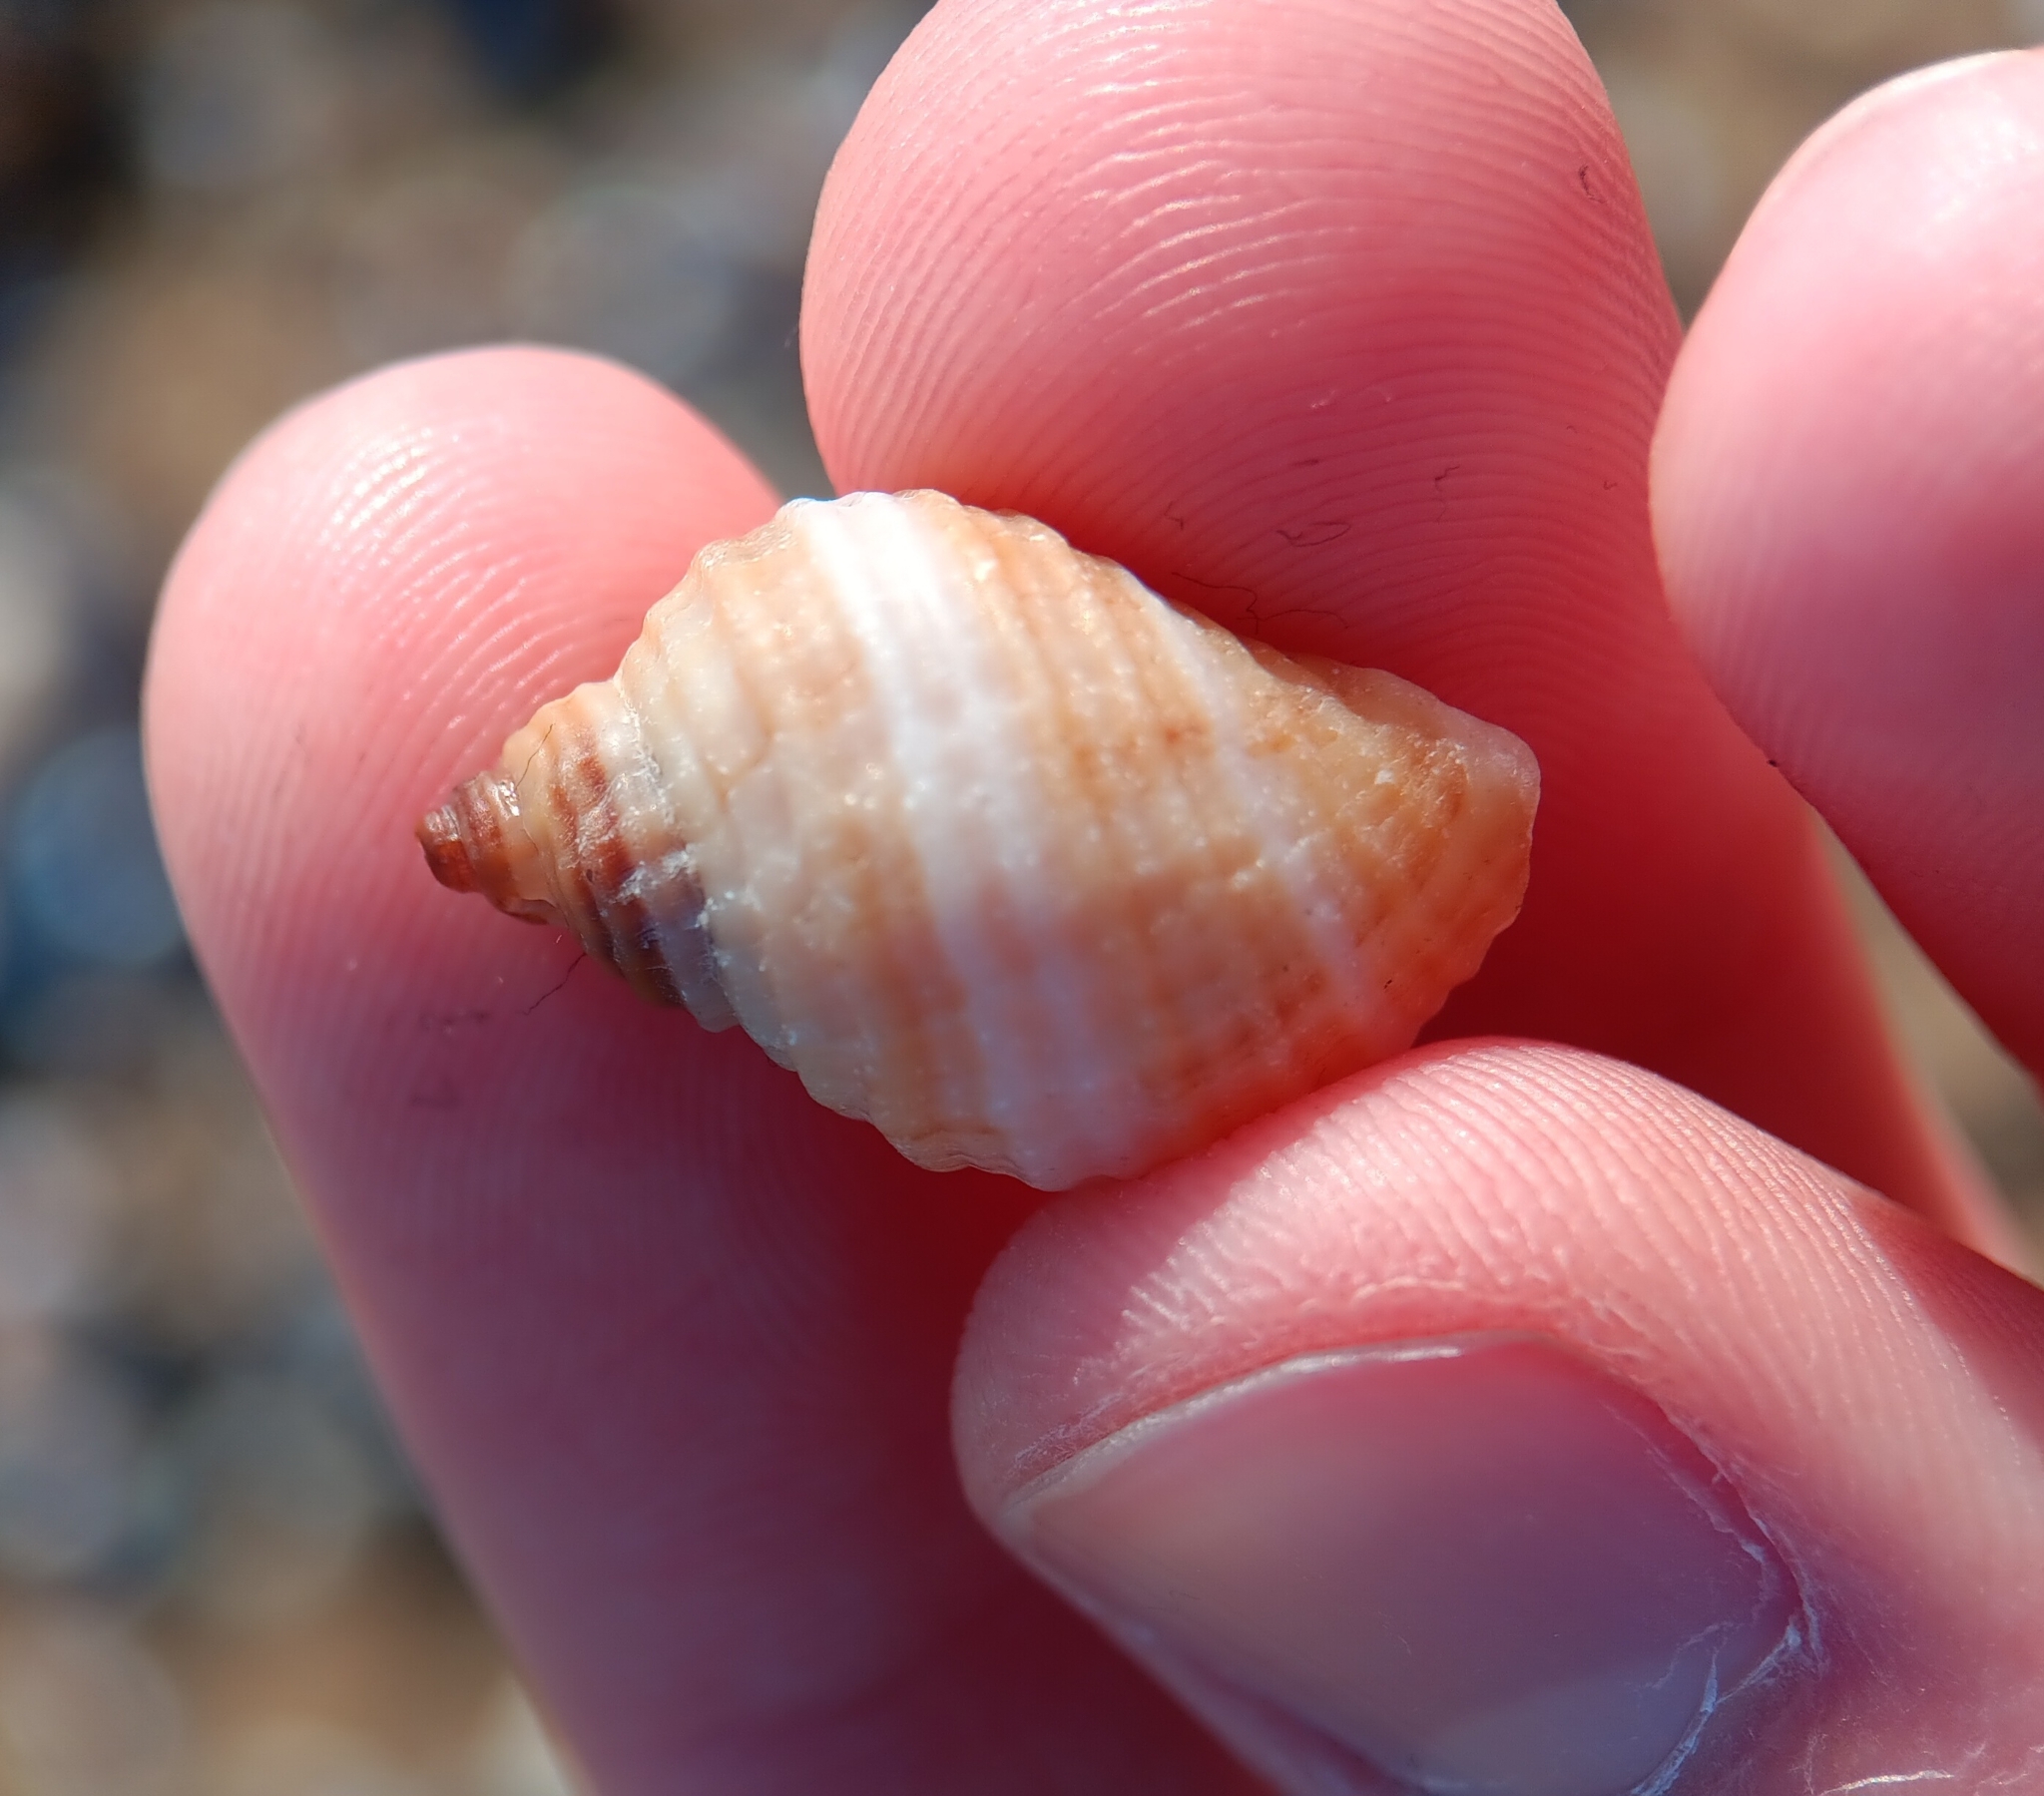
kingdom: Animalia
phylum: Mollusca
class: Gastropoda
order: Neogastropoda
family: Muricidae
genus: Nucella
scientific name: Nucella lapillus
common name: Dog whelk
